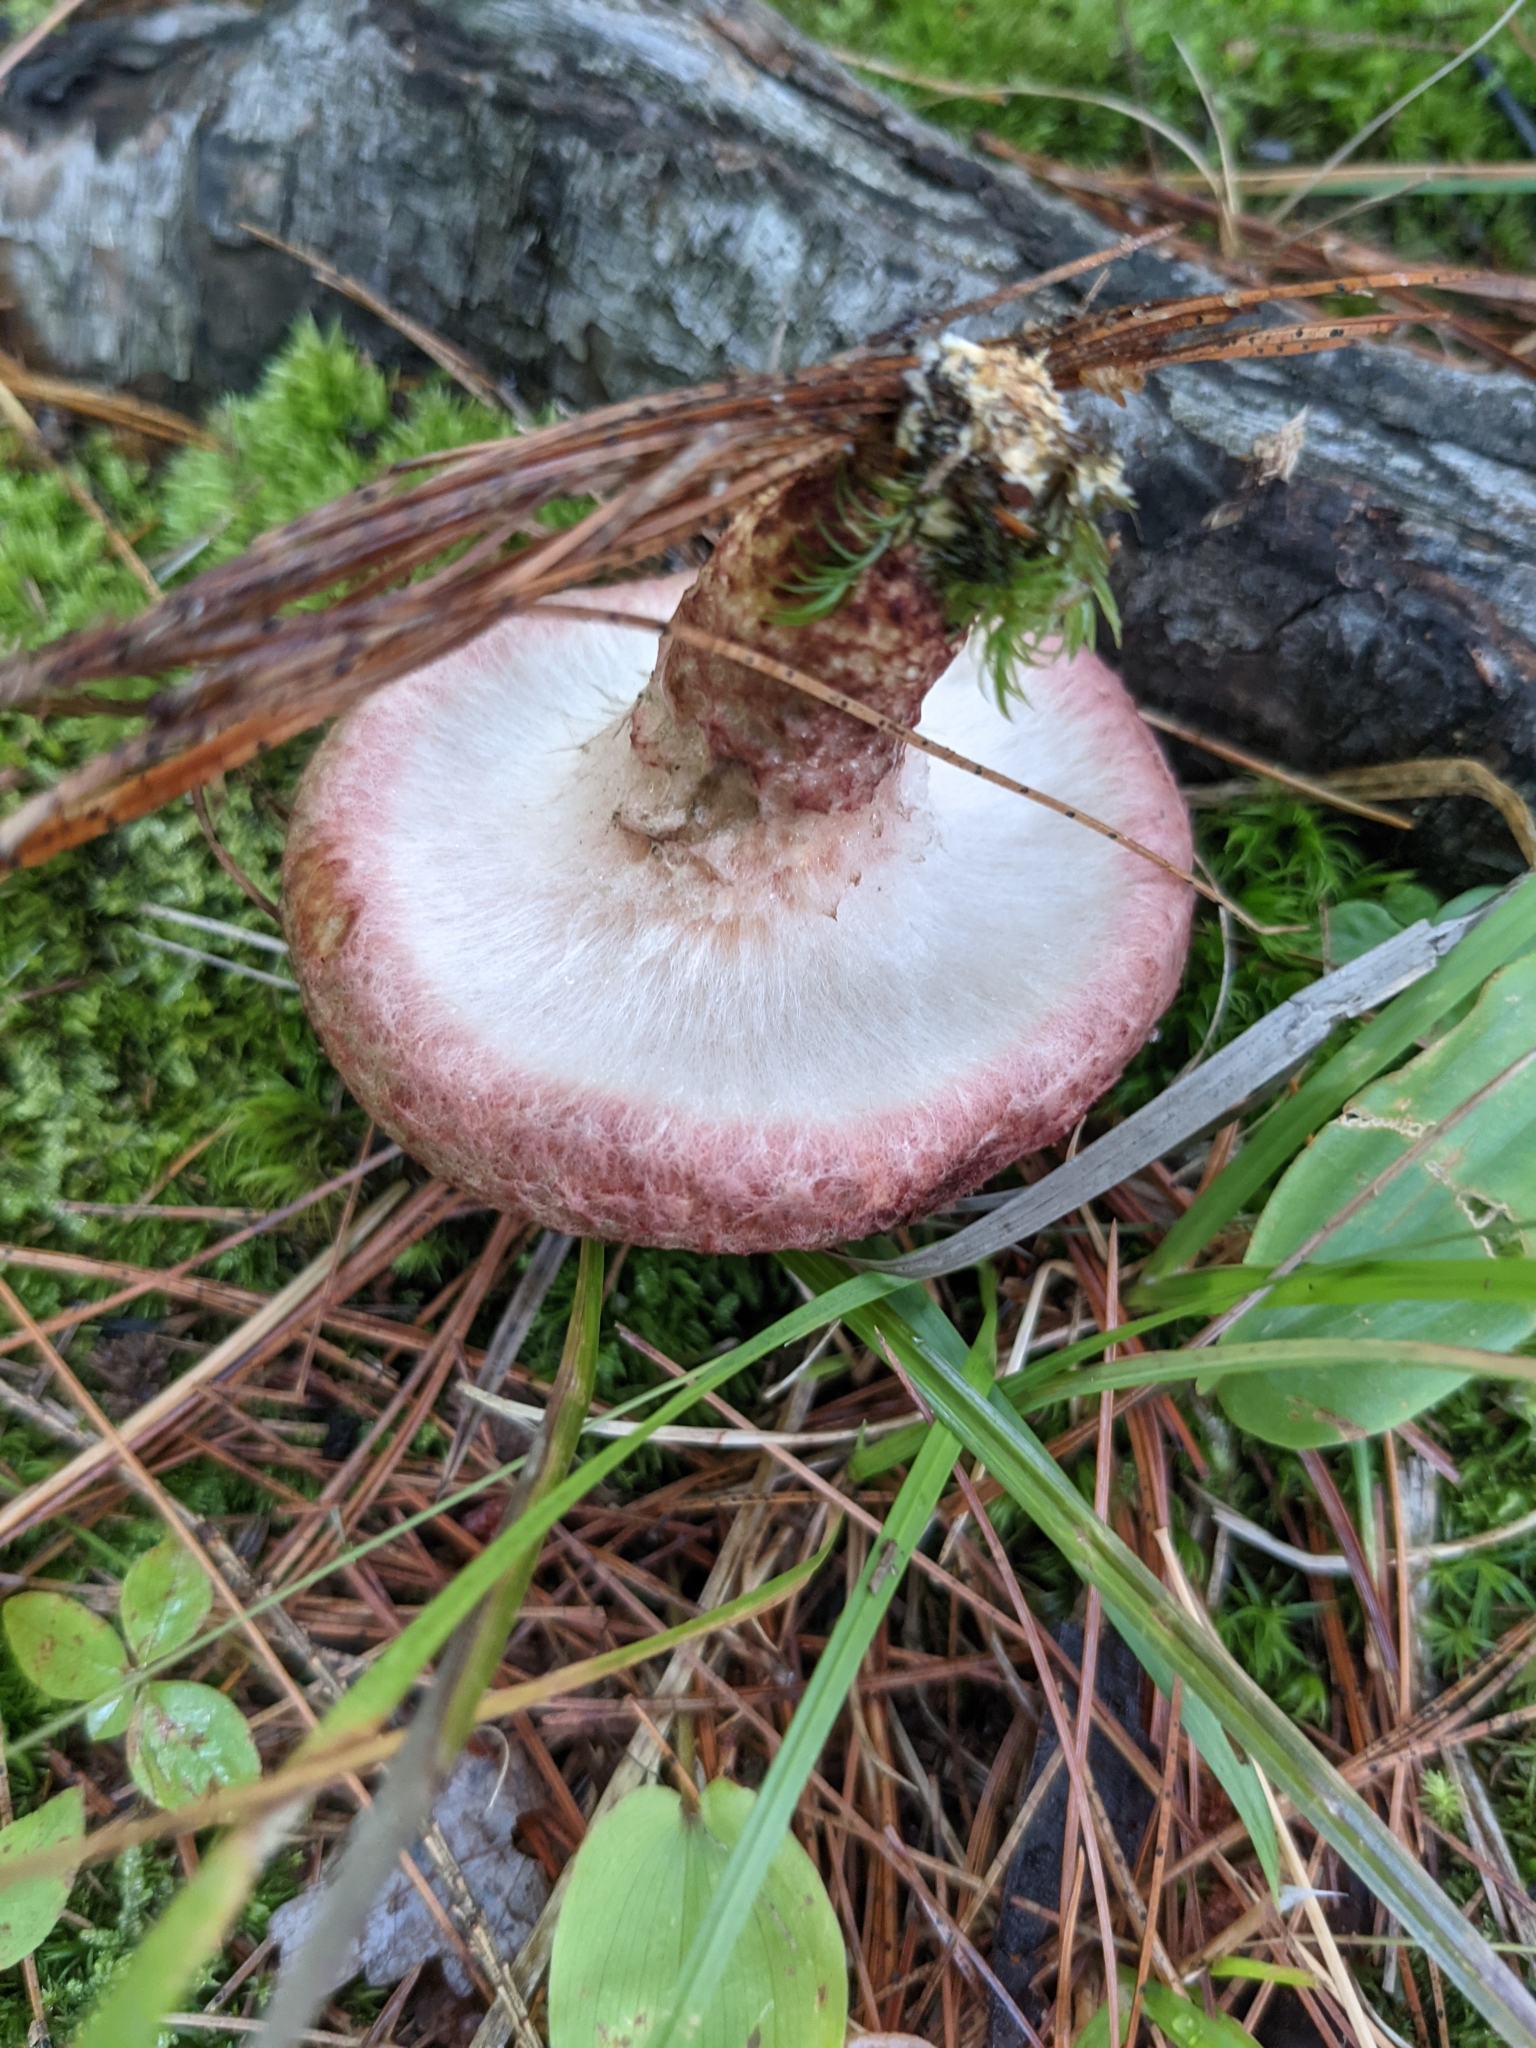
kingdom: Fungi
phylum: Basidiomycota
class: Agaricomycetes
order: Boletales
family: Suillaceae
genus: Suillus
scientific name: Suillus spraguei
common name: Painted suillus
